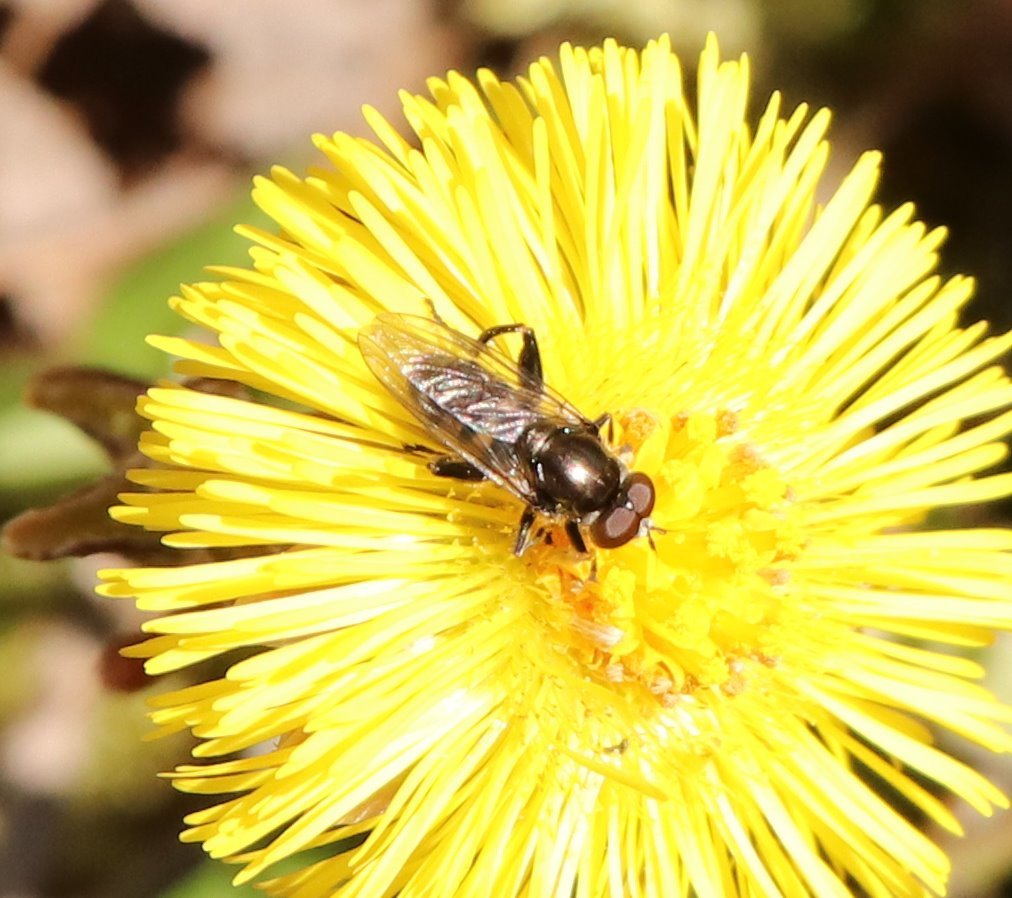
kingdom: Animalia
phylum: Arthropoda
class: Insecta
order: Diptera
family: Syrphidae
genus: Chalcosyrphus
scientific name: Chalcosyrphus nemorum
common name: Dusky-banded forest fly
